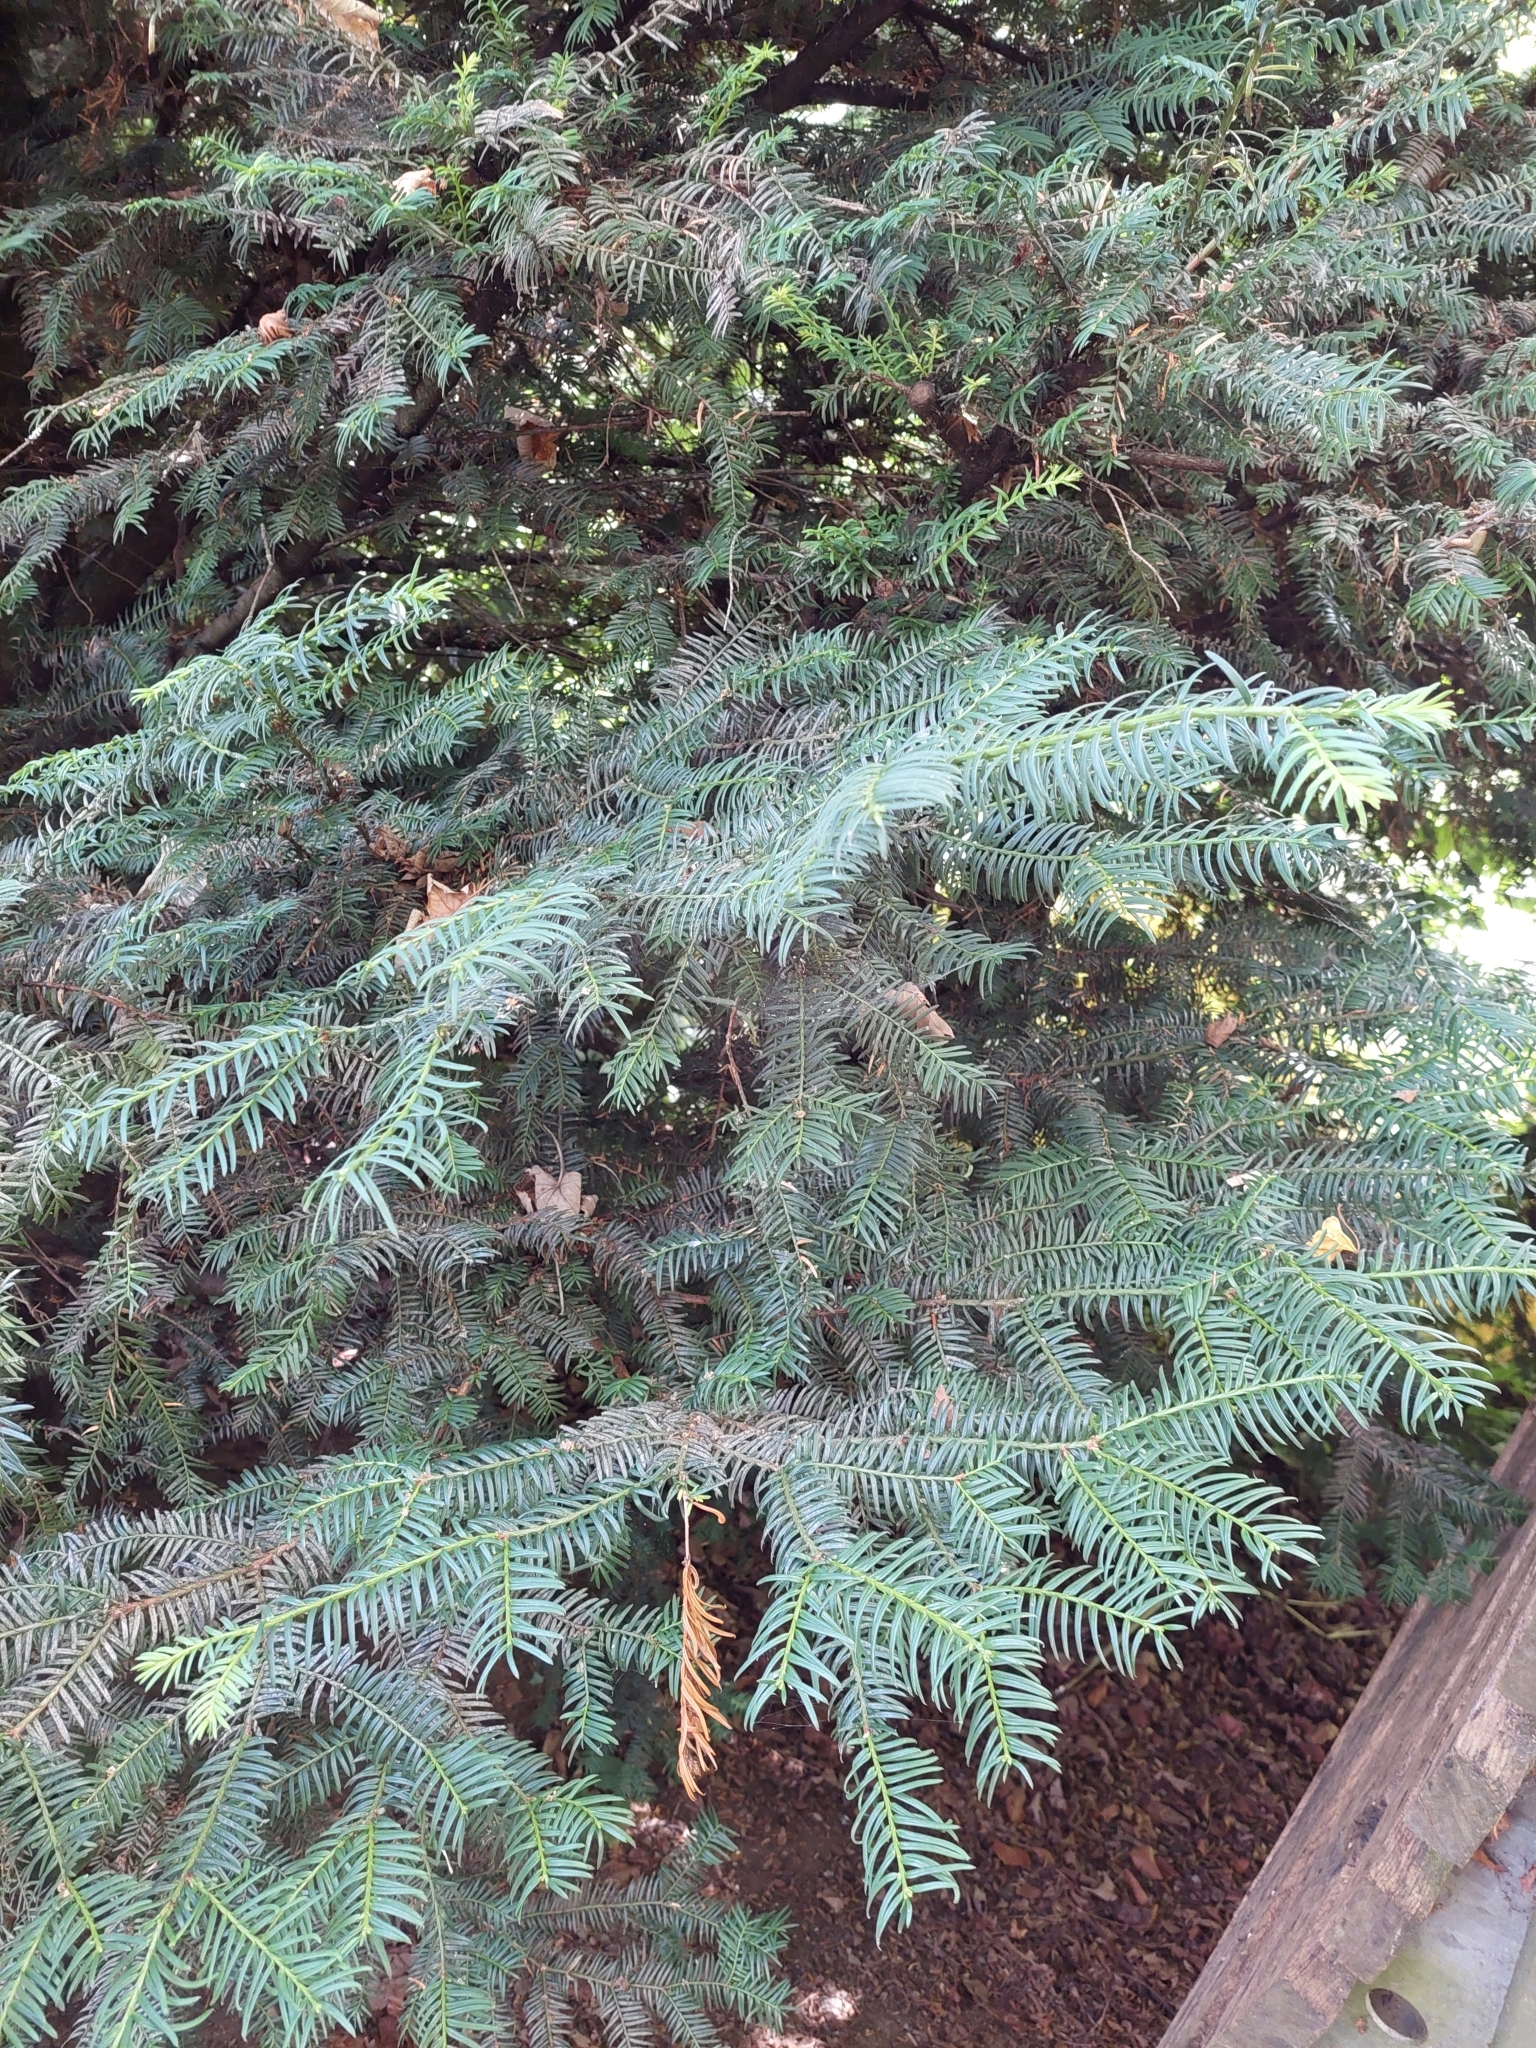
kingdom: Plantae
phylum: Tracheophyta
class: Pinopsida
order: Pinales
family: Taxaceae
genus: Taxus
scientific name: Taxus baccata
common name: Yew
